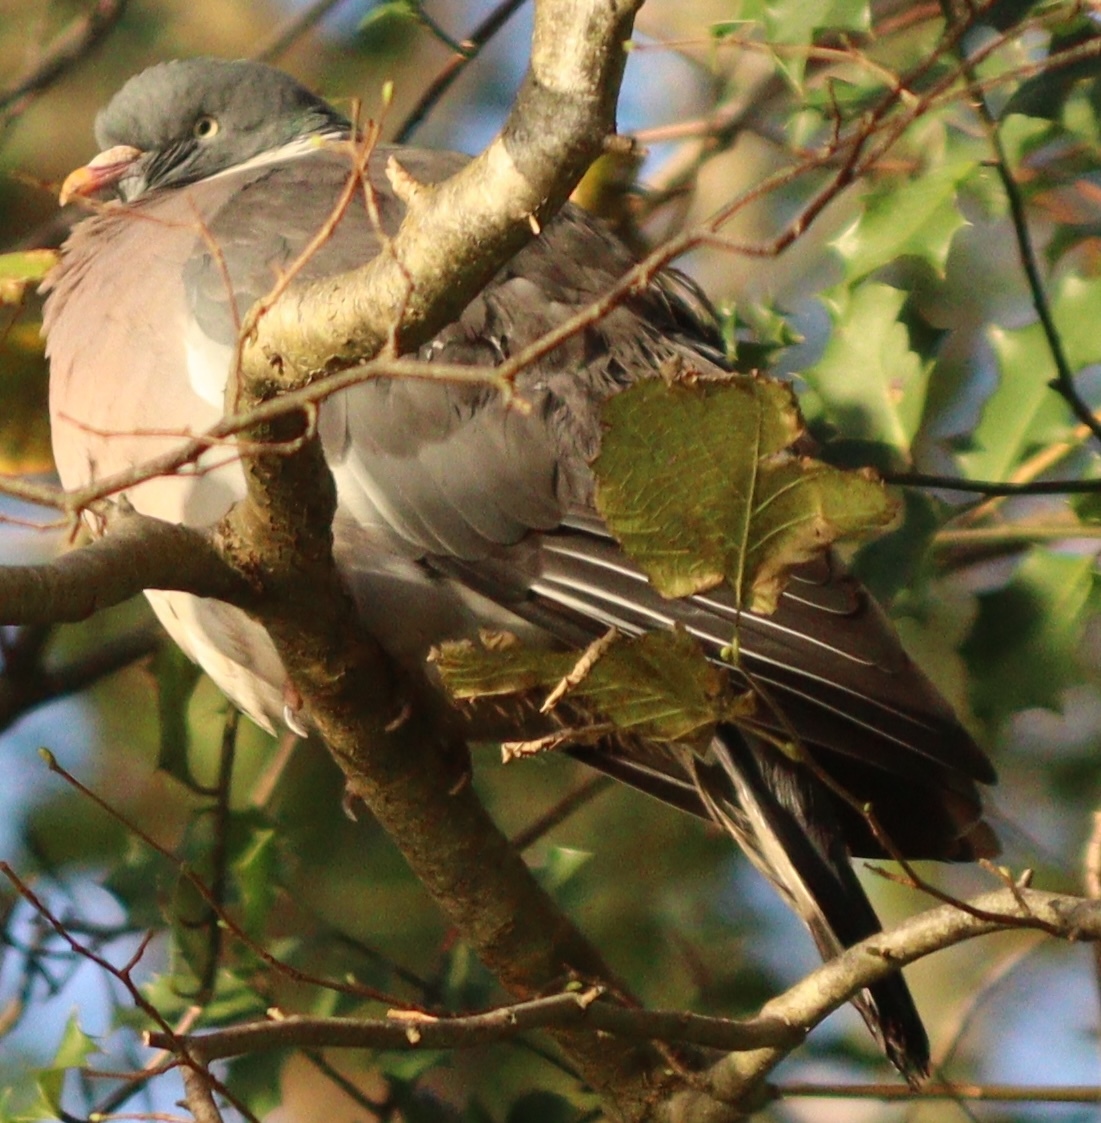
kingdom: Animalia
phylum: Chordata
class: Aves
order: Columbiformes
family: Columbidae
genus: Columba
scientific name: Columba palumbus
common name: Common wood pigeon
